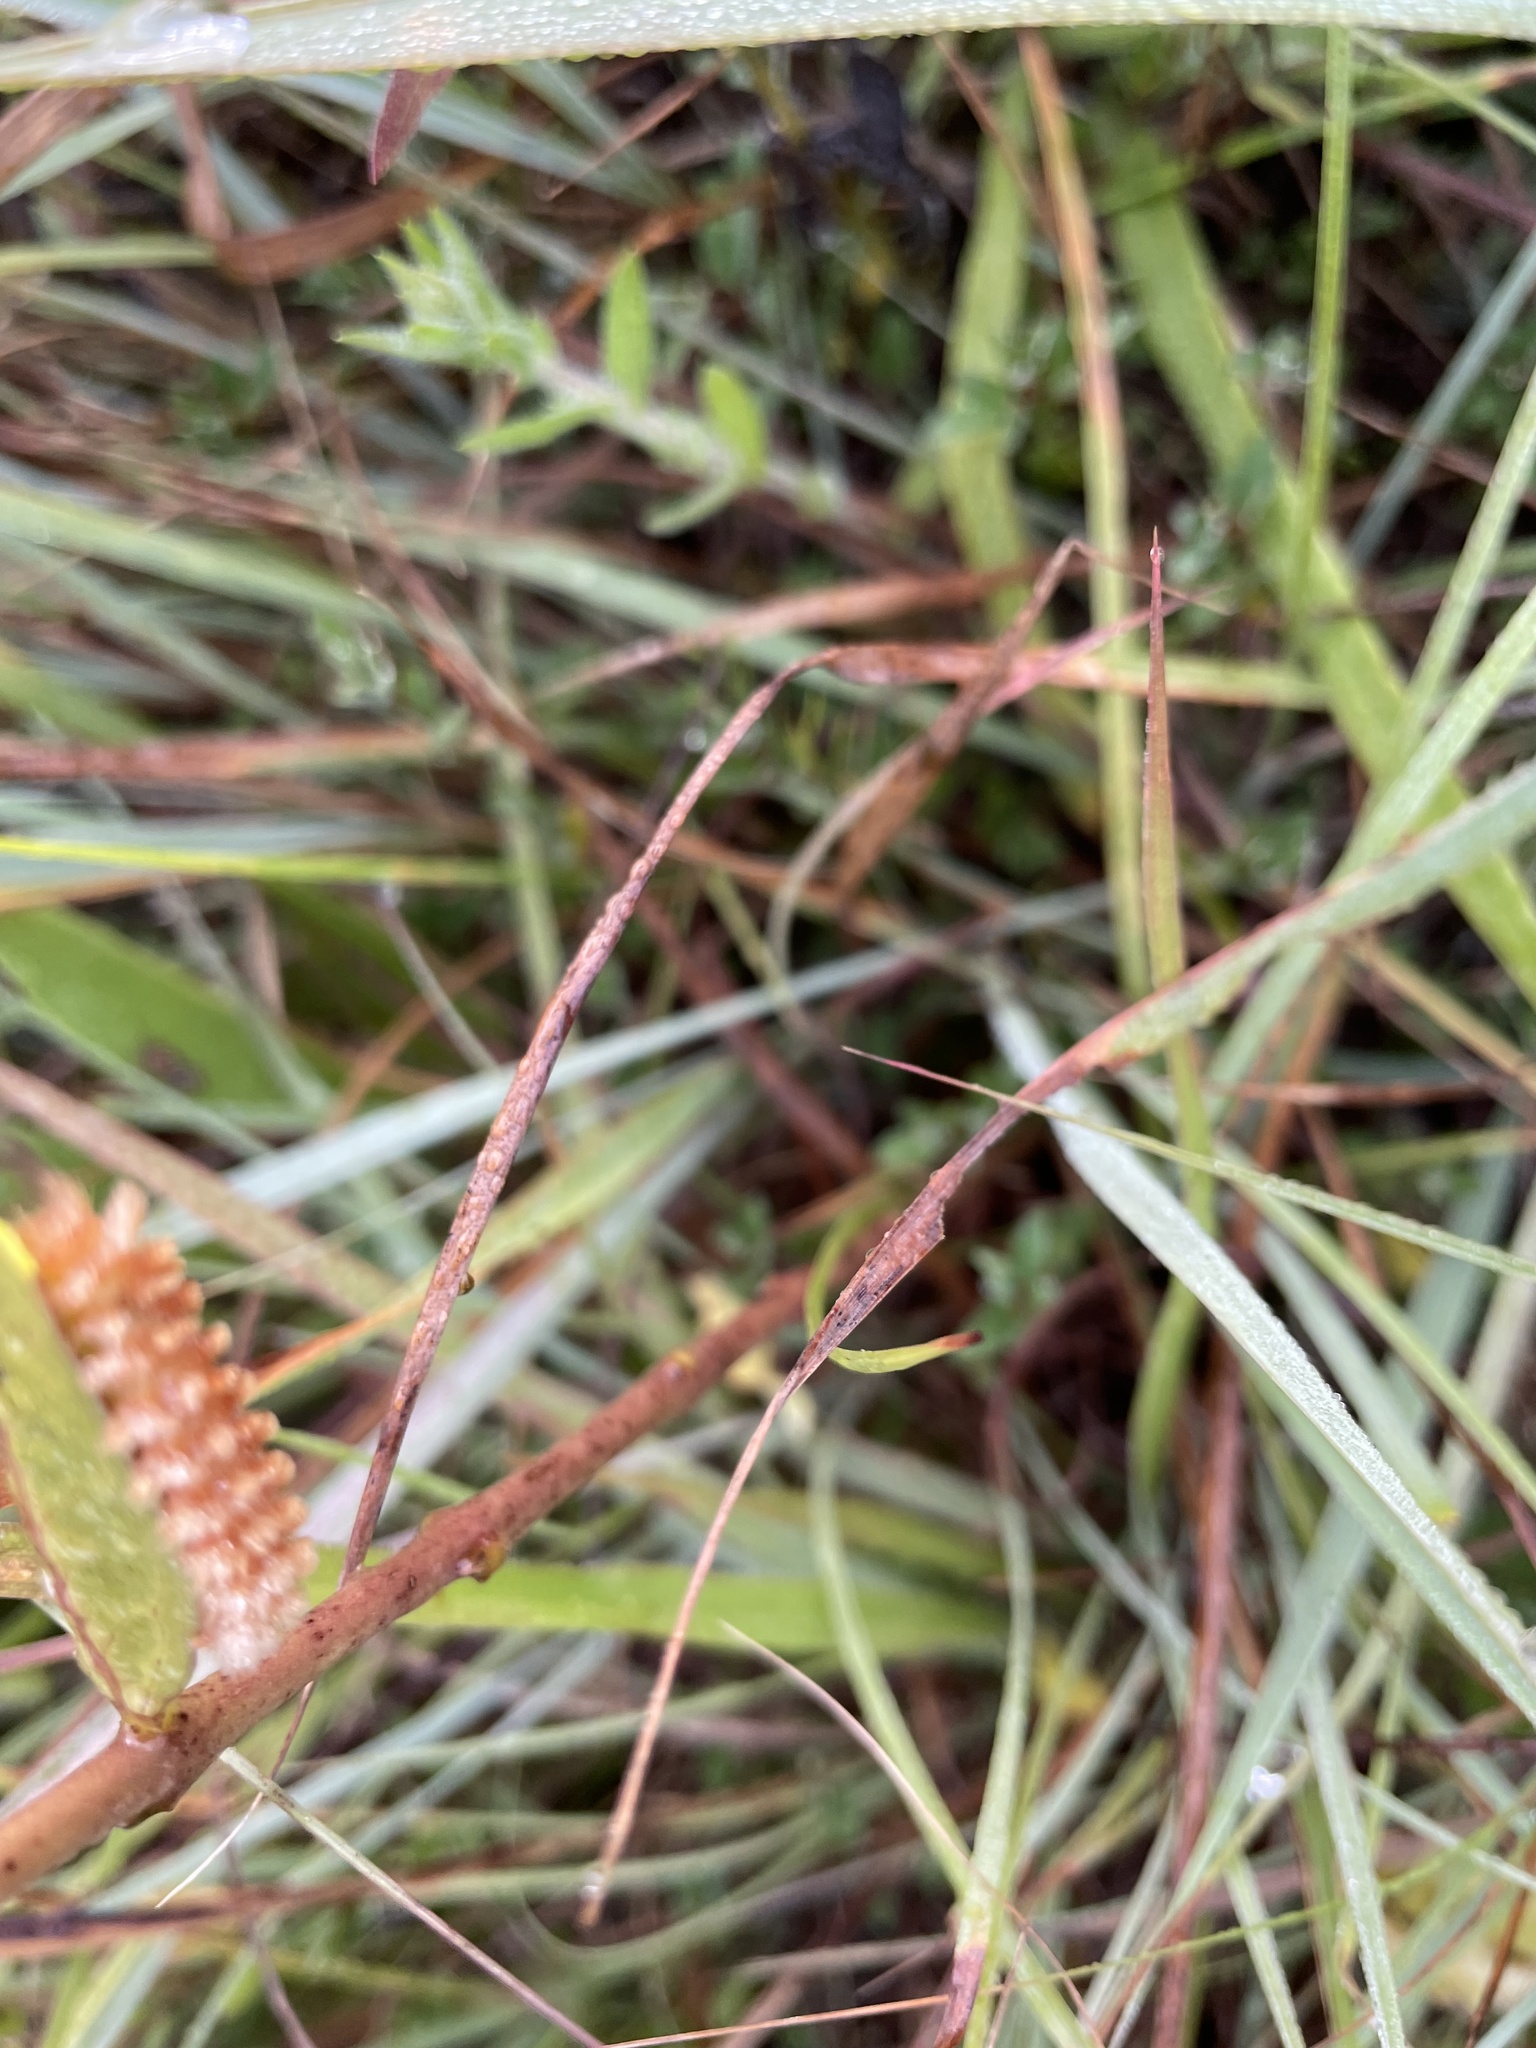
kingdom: Animalia
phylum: Arthropoda
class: Insecta
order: Lepidoptera
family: Erebidae
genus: Cycnia
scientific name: Cycnia collaris
